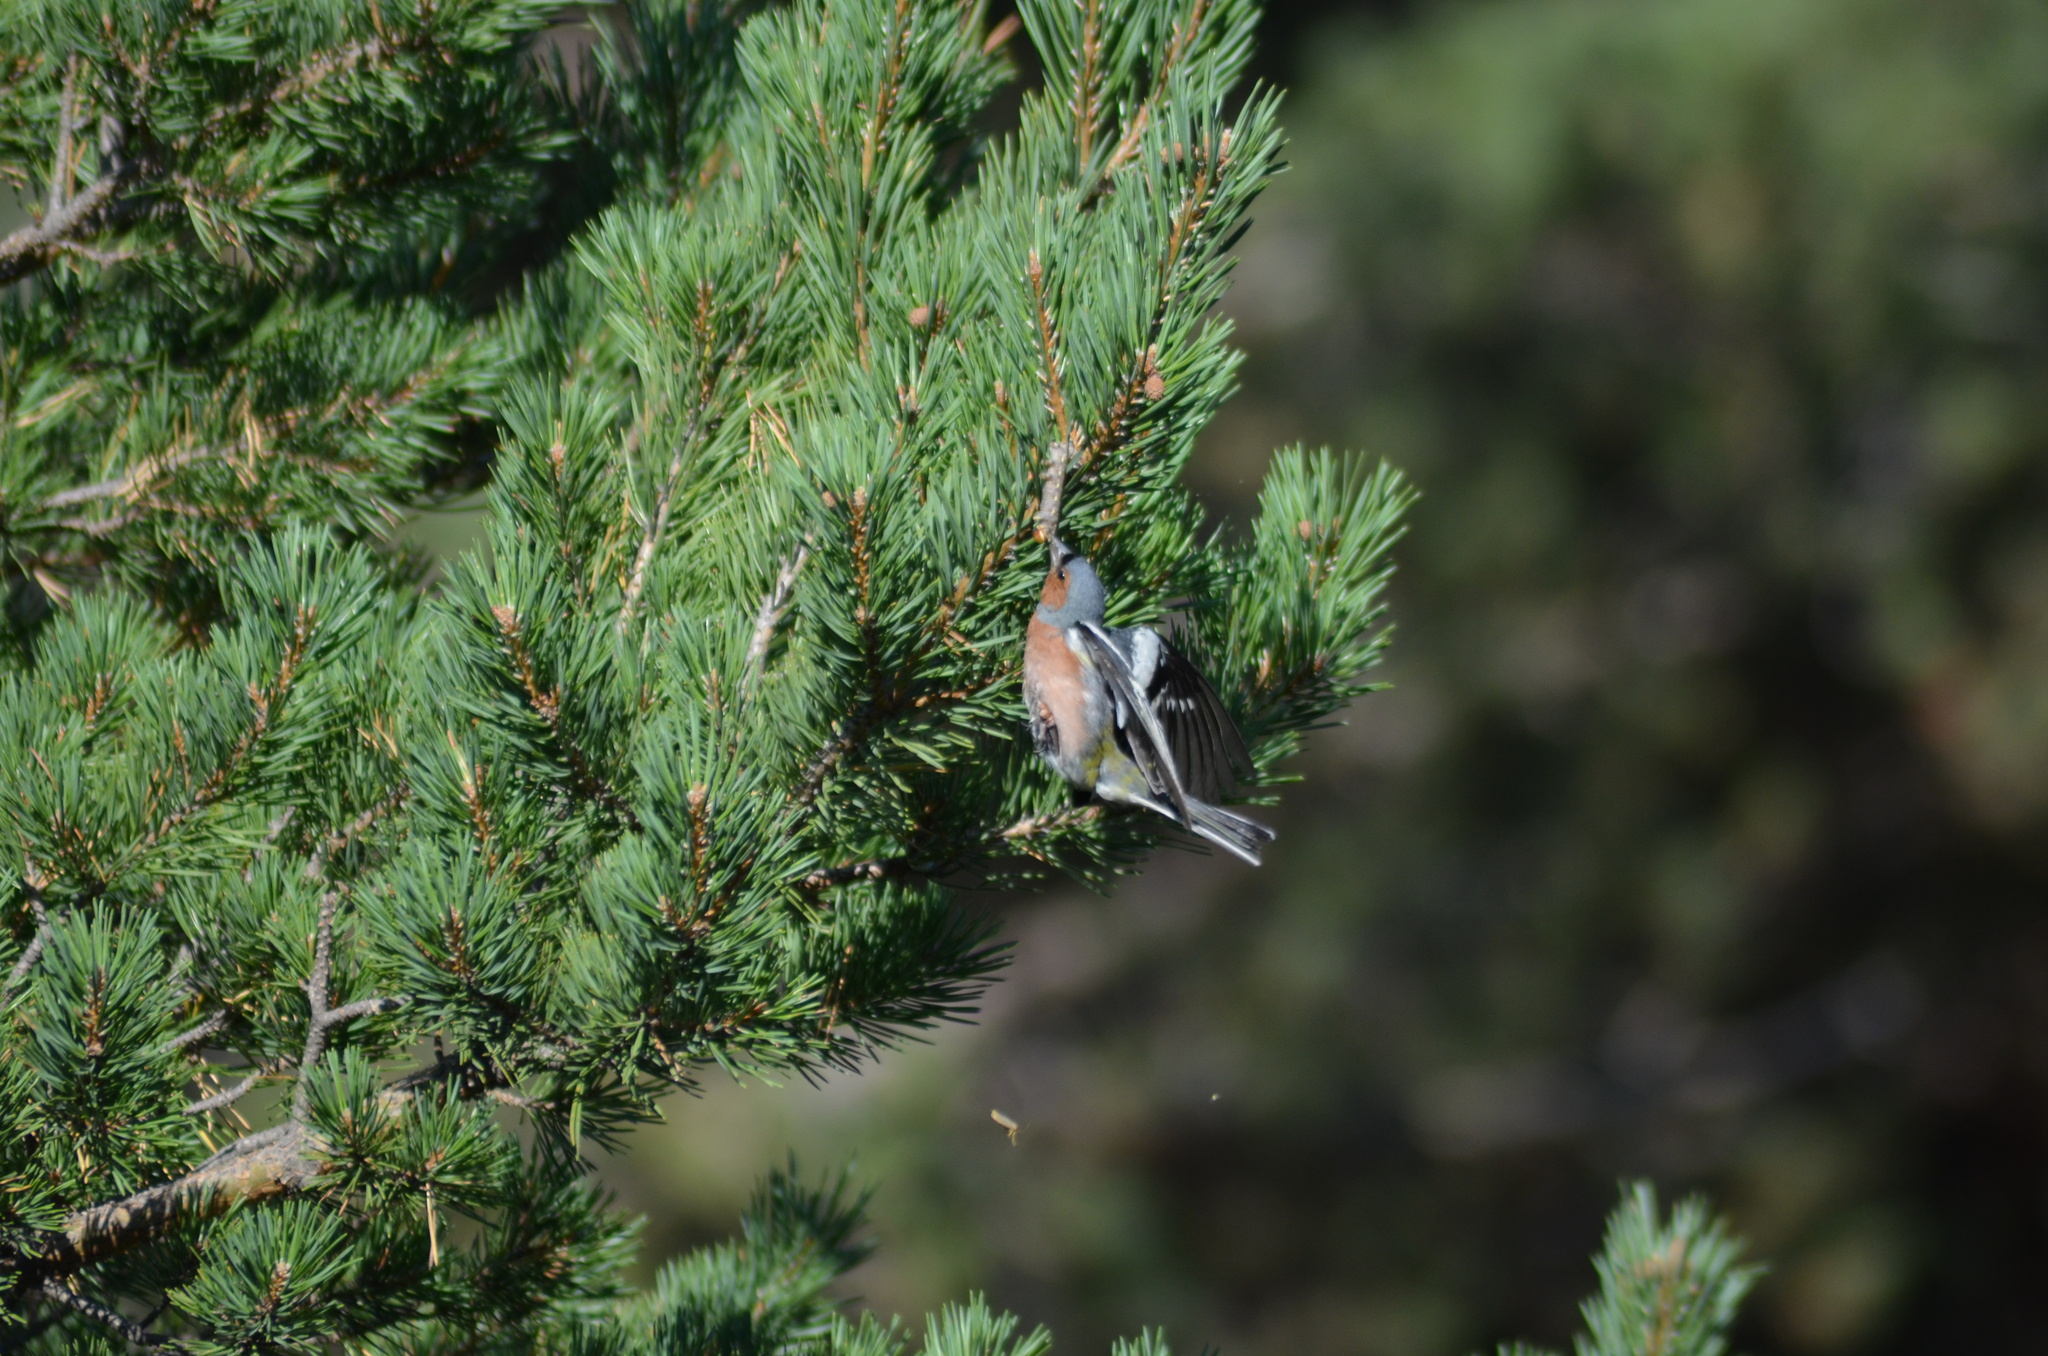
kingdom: Animalia
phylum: Chordata
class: Aves
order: Passeriformes
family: Fringillidae
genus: Fringilla
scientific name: Fringilla coelebs
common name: Common chaffinch
